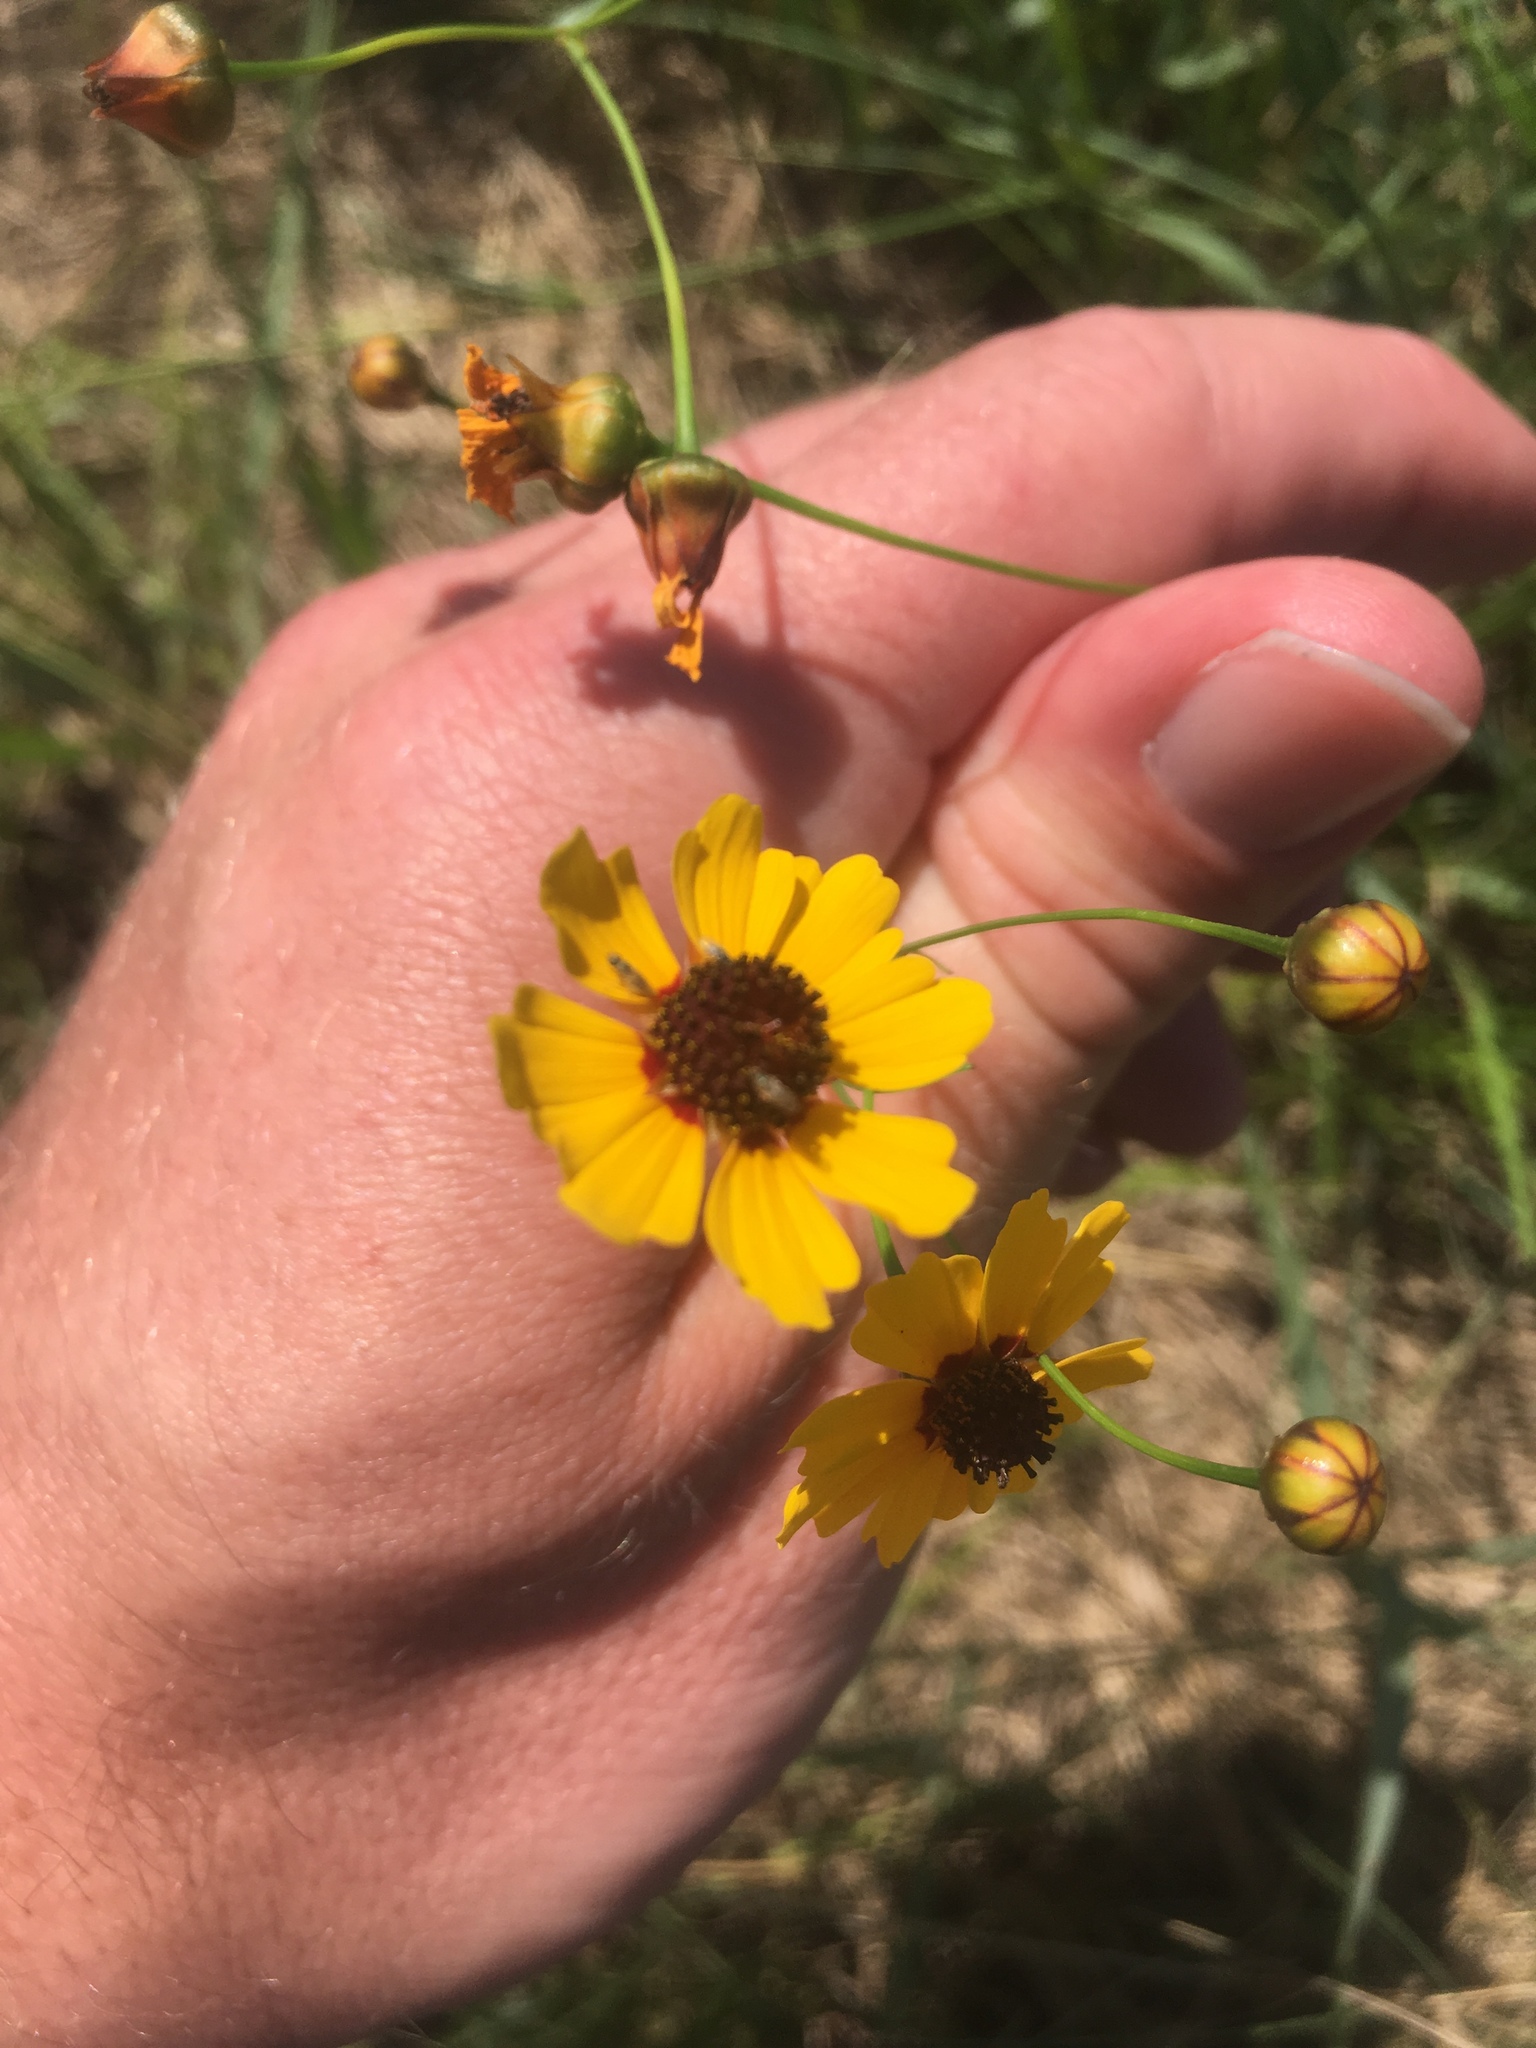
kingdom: Plantae
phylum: Tracheophyta
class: Magnoliopsida
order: Asterales
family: Asteraceae
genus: Coreopsis
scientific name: Coreopsis tinctoria
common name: Garden tickseed
